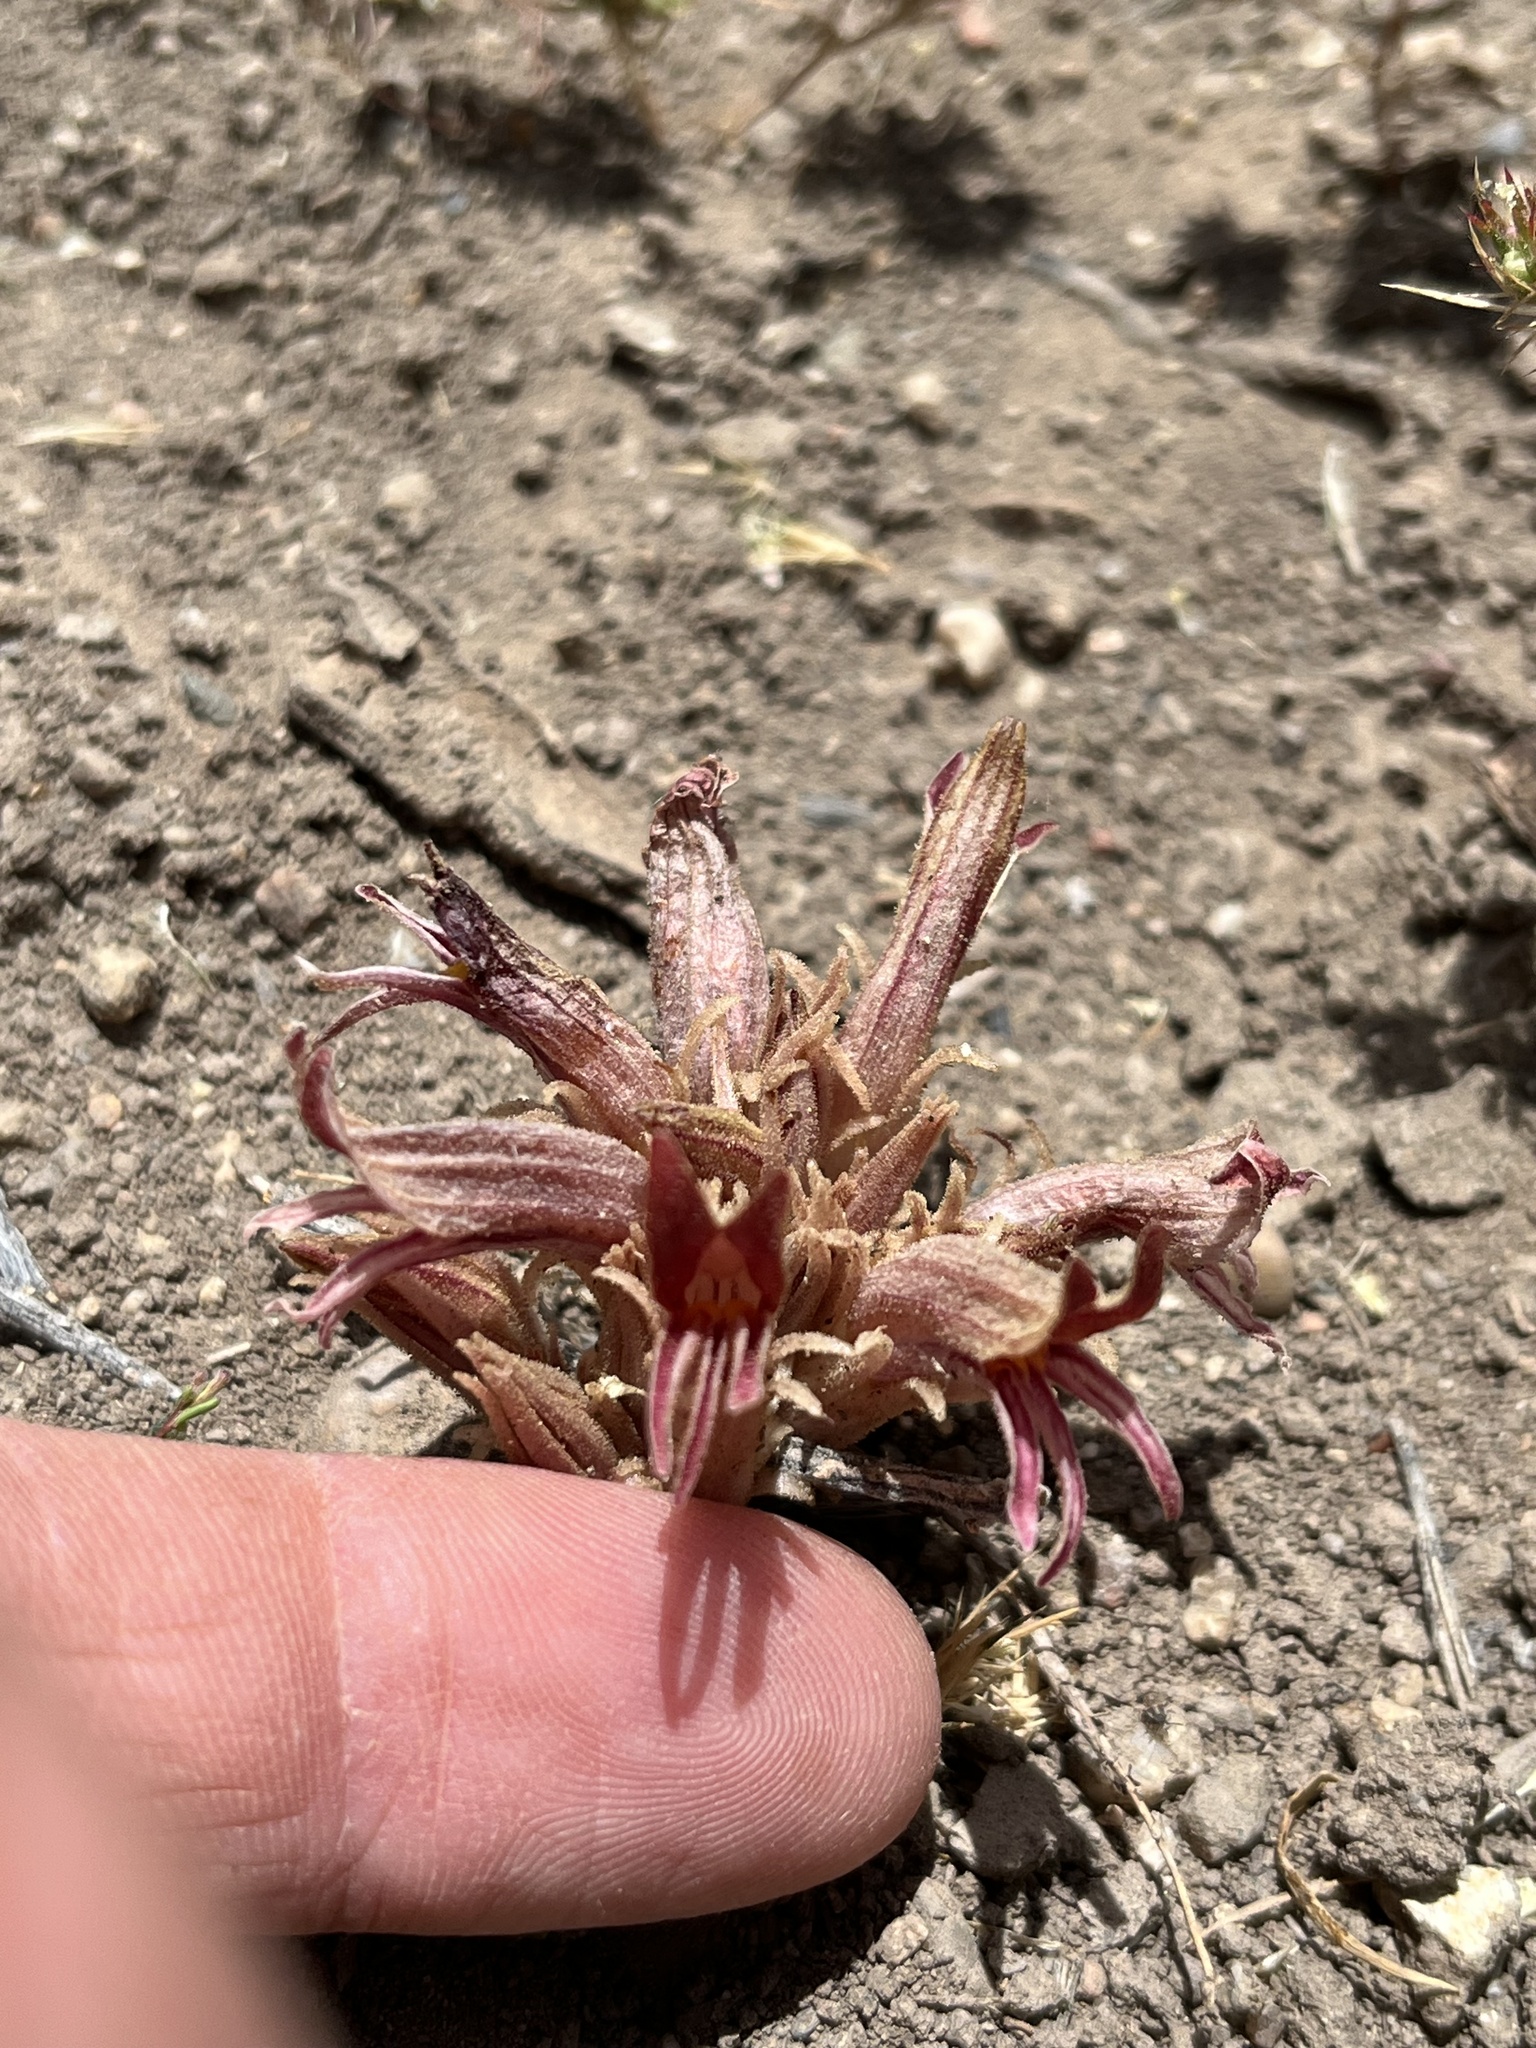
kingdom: Plantae
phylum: Tracheophyta
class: Magnoliopsida
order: Lamiales
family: Orobanchaceae
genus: Aphyllon
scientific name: Aphyllon corymbosum
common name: Flat-top broomrape
